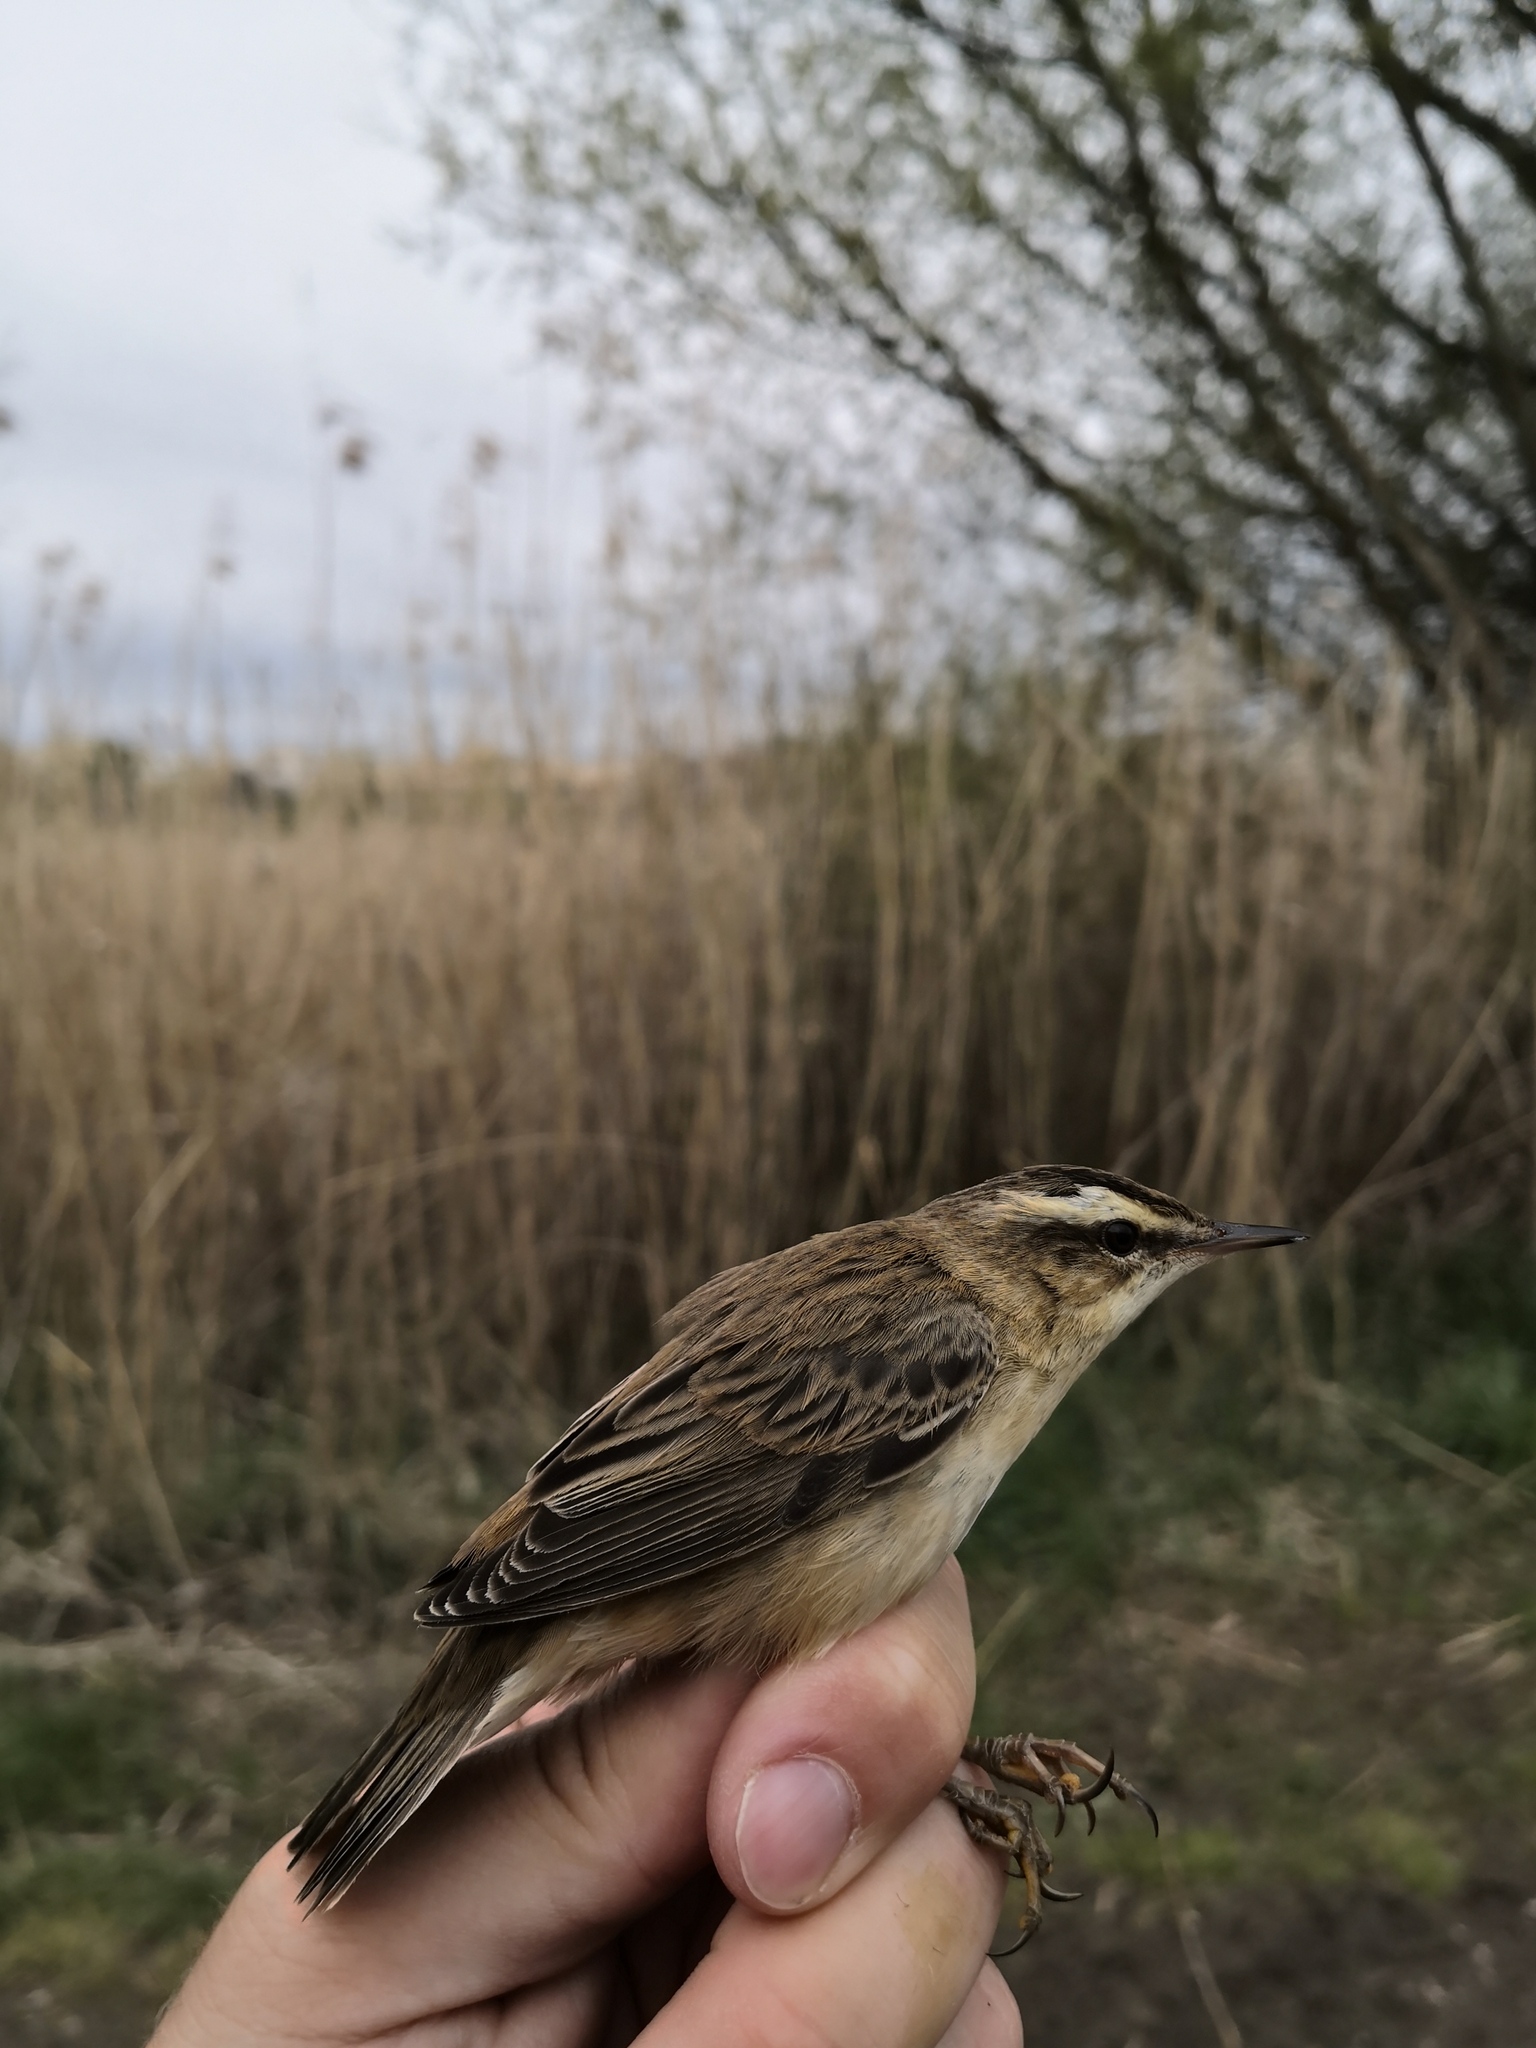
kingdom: Animalia
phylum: Chordata
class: Aves
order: Passeriformes
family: Acrocephalidae
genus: Acrocephalus
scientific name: Acrocephalus schoenobaenus
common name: Sedge warbler
